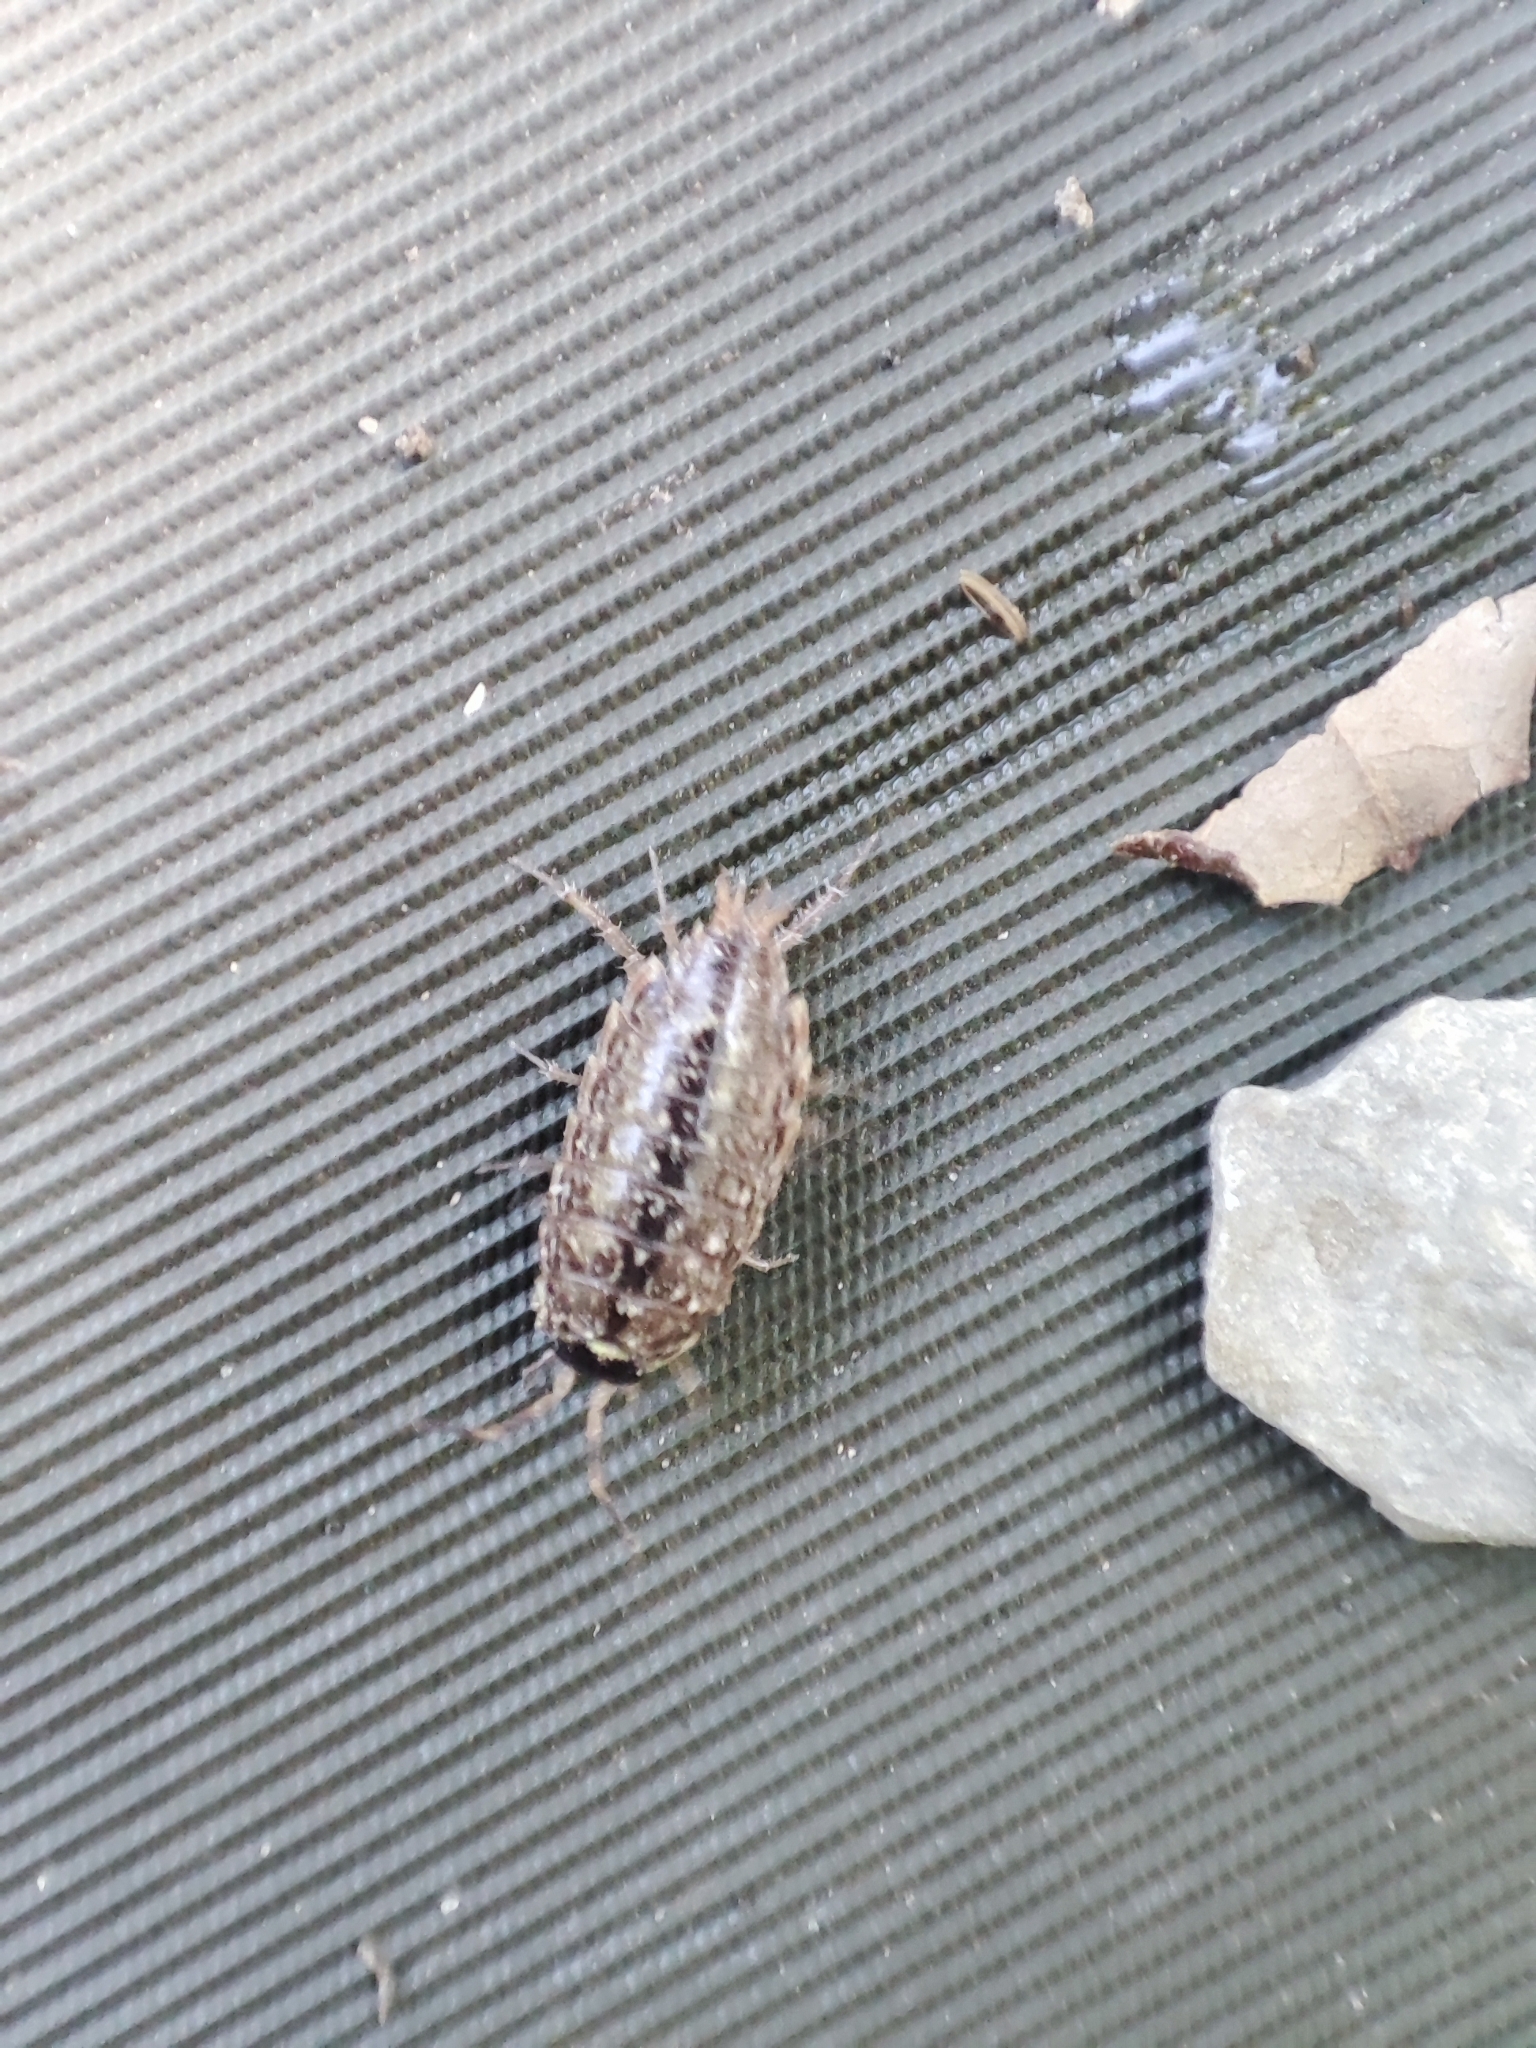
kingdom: Animalia
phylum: Arthropoda
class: Malacostraca
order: Isopoda
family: Philosciidae
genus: Philoscia
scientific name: Philoscia muscorum
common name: Common striped woodlouse
